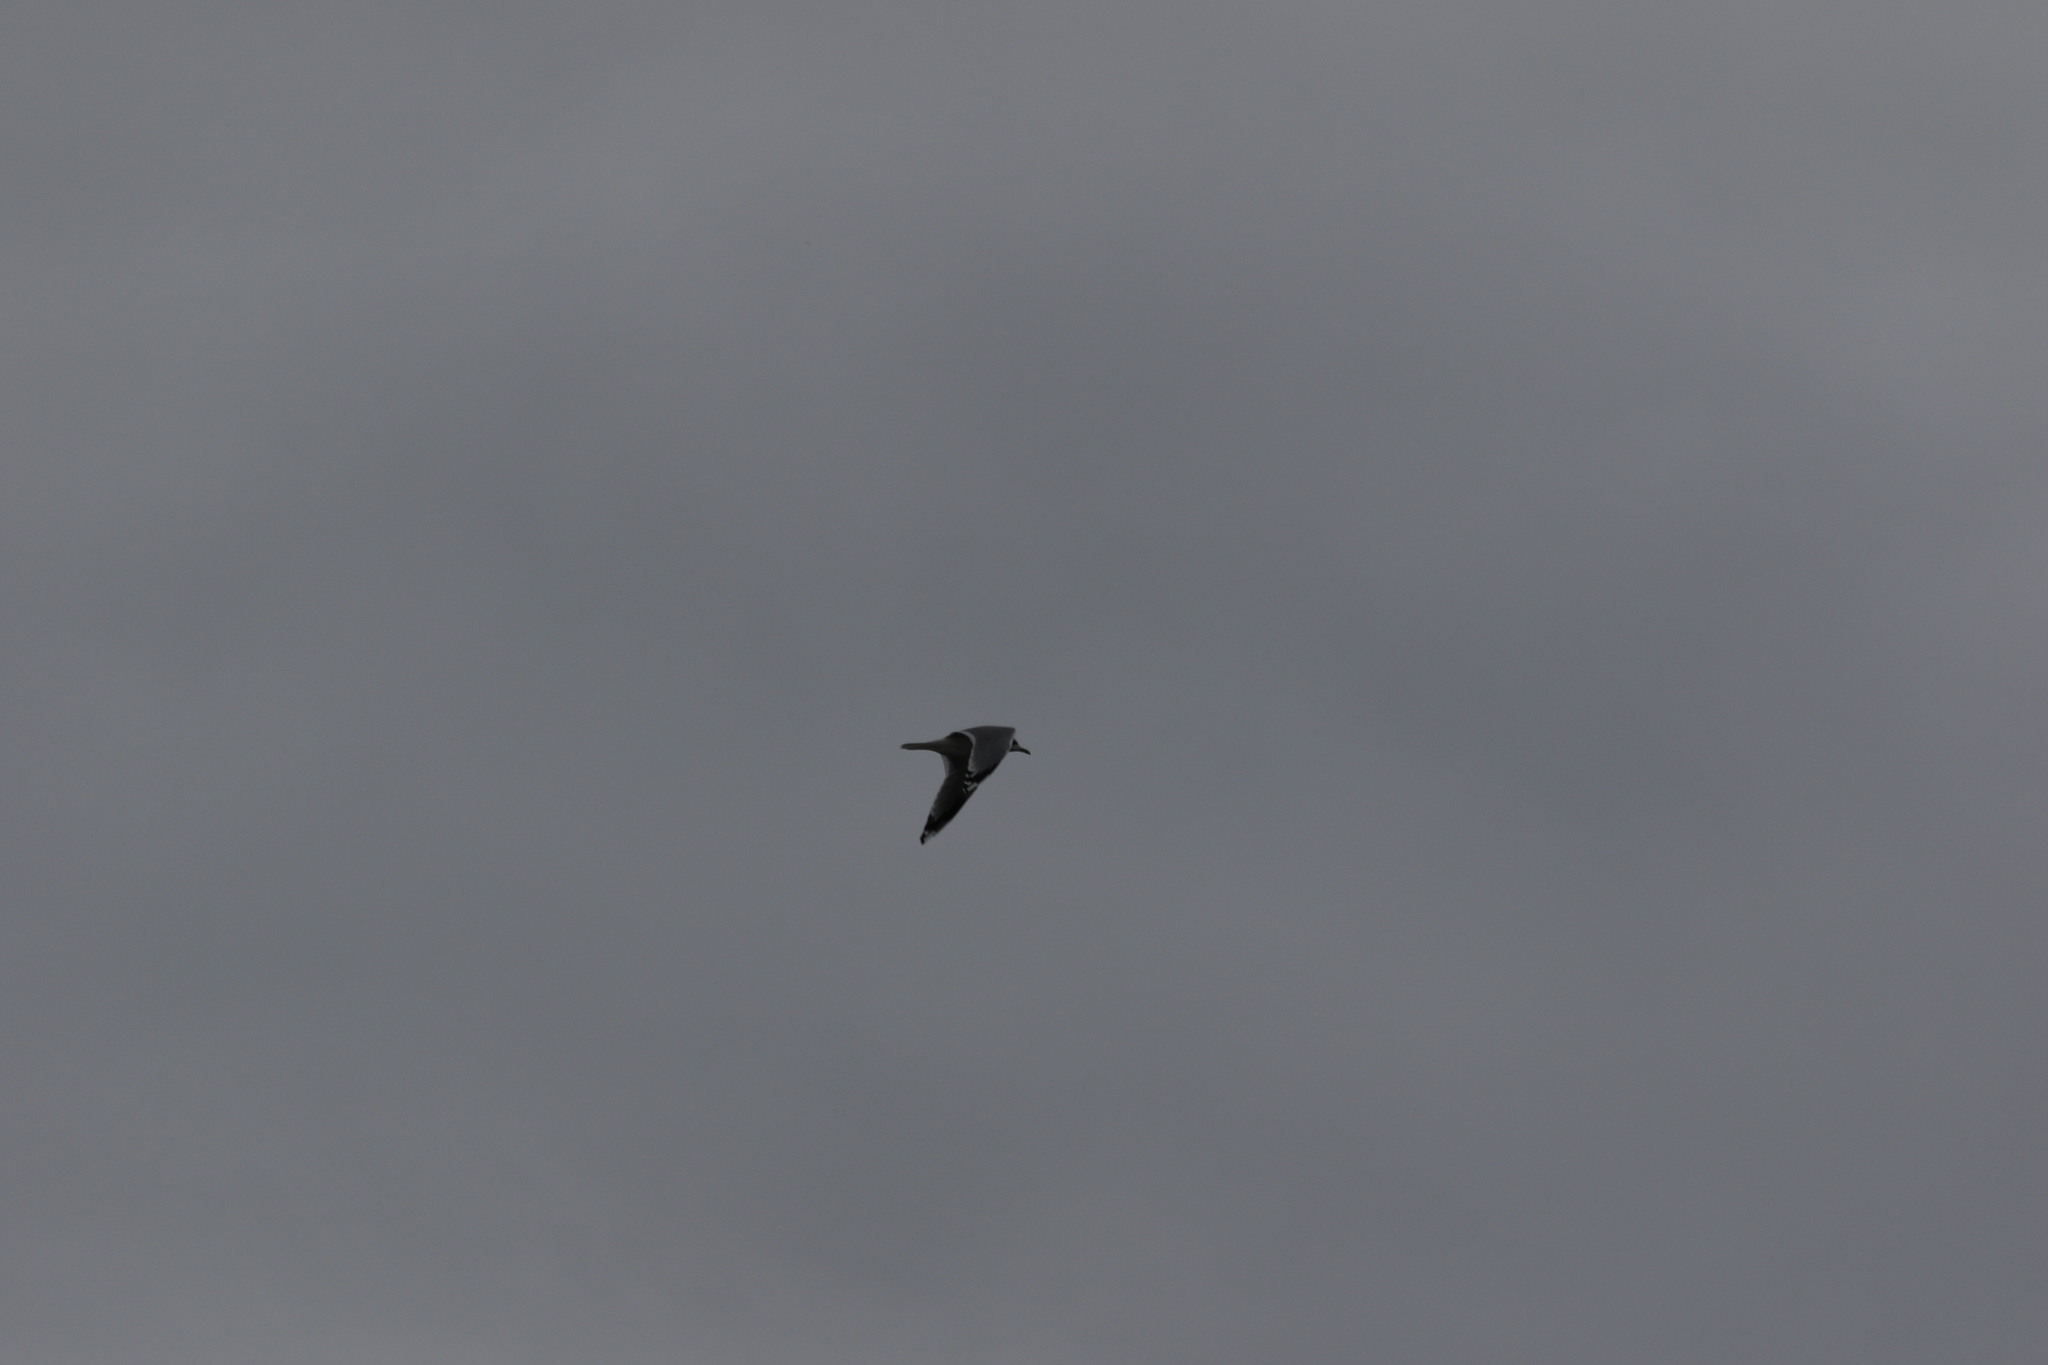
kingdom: Animalia
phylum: Chordata
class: Aves
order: Charadriiformes
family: Laridae
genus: Larus
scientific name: Larus canus
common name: Mew gull
